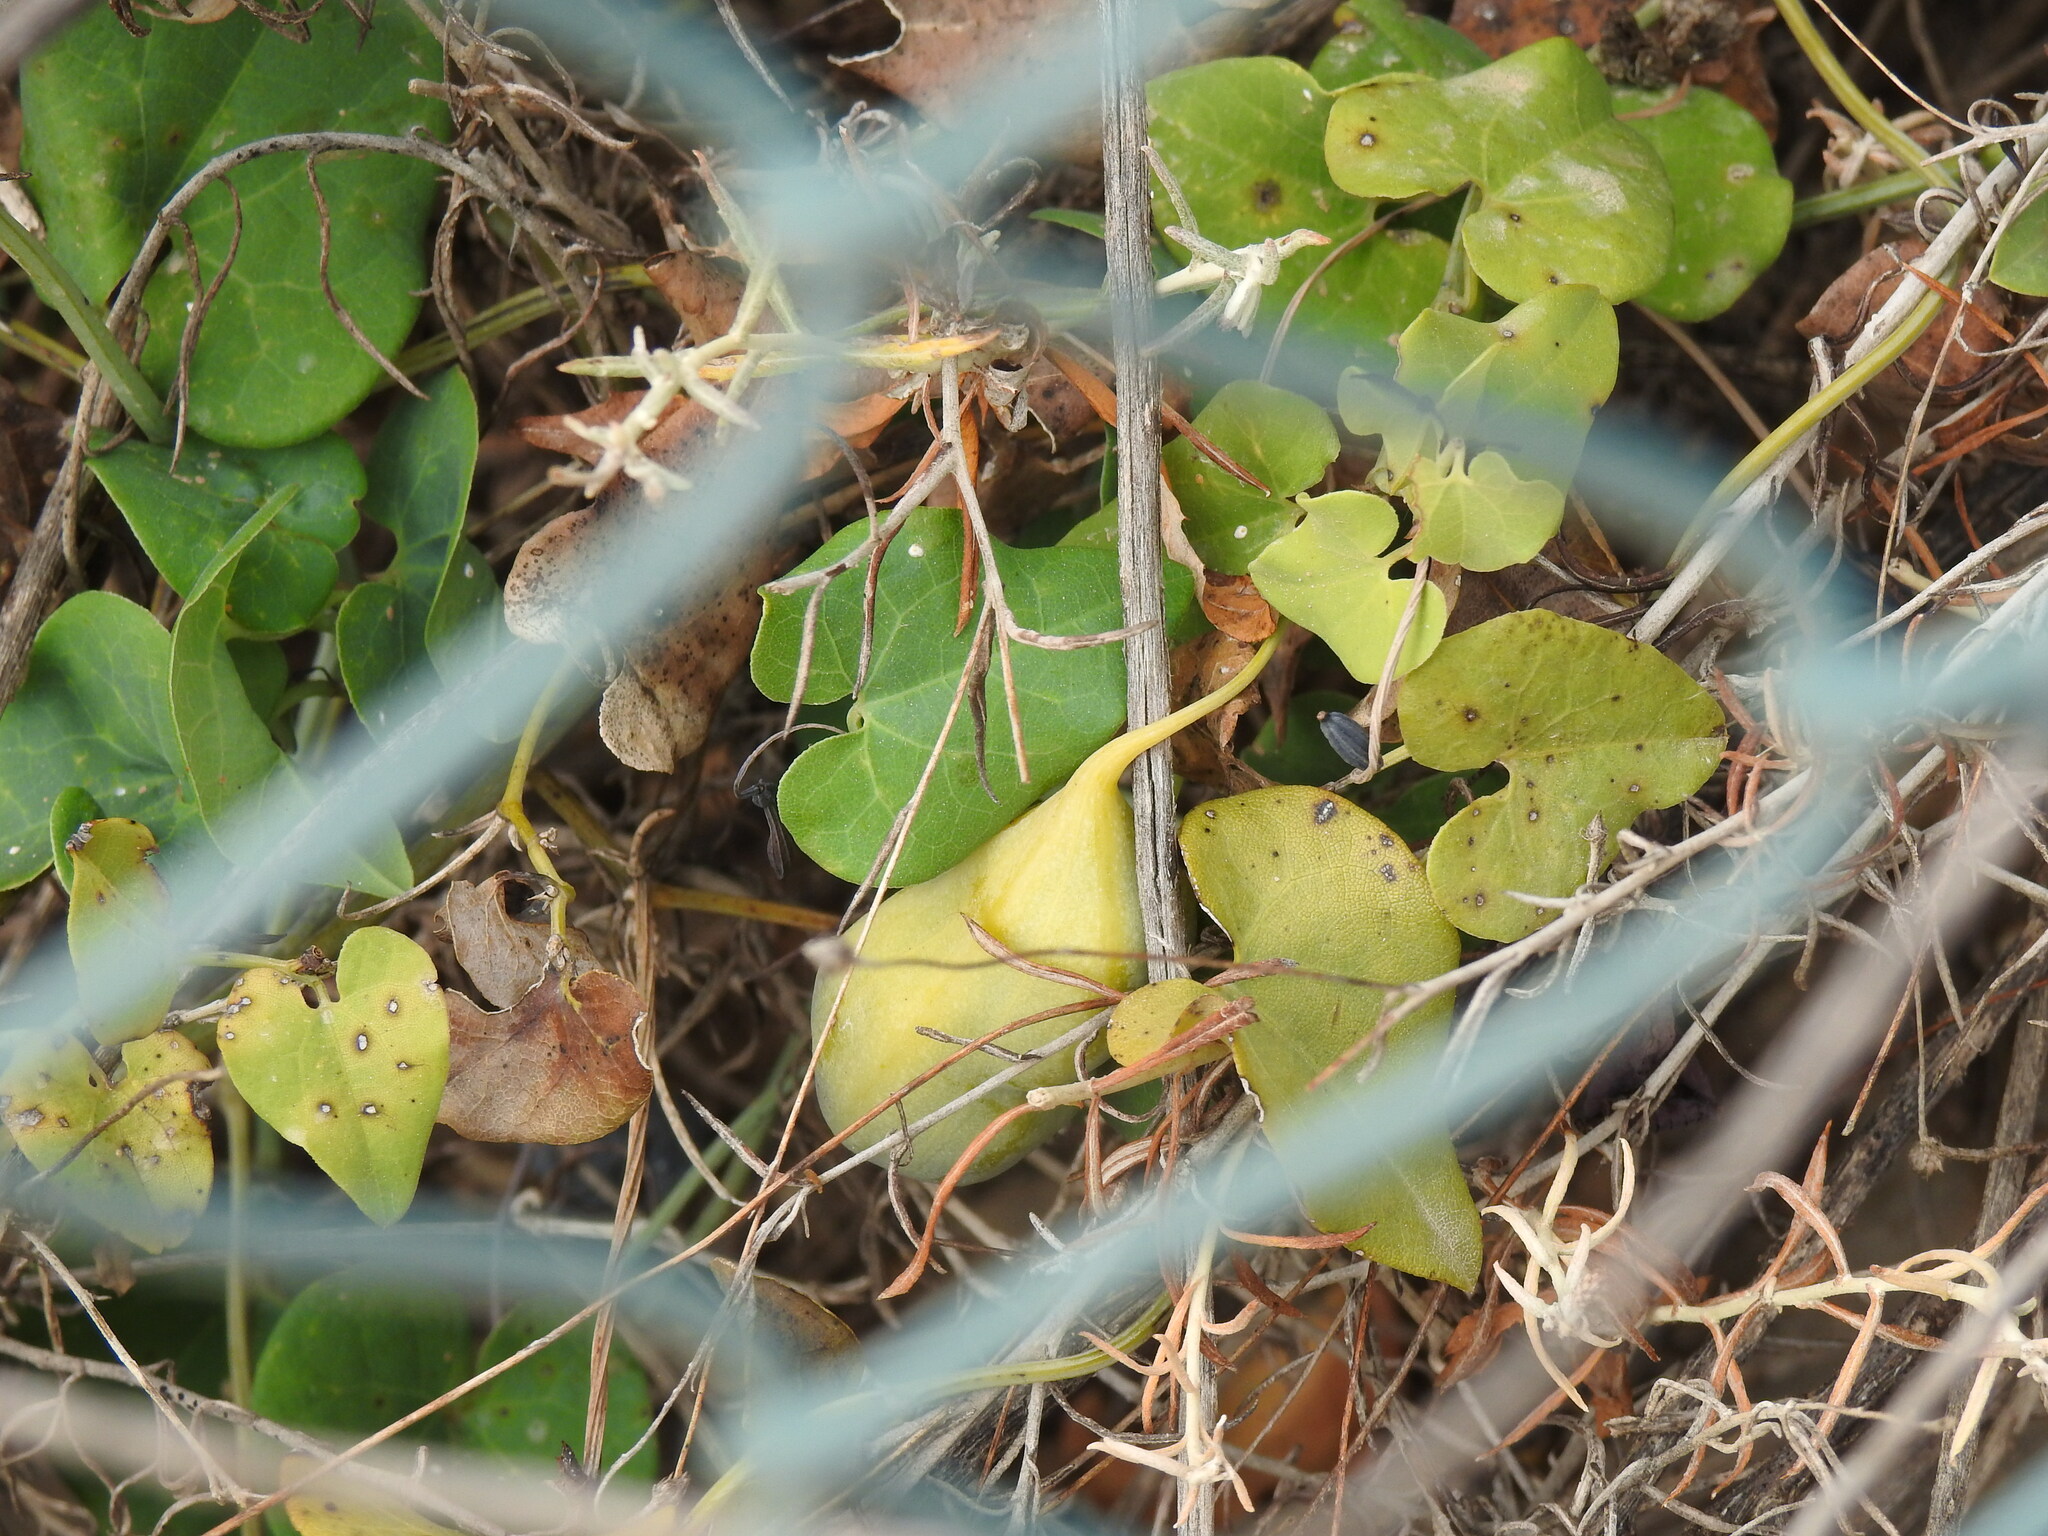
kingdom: Plantae
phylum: Tracheophyta
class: Magnoliopsida
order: Piperales
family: Aristolochiaceae
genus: Aristolochia
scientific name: Aristolochia baetica
